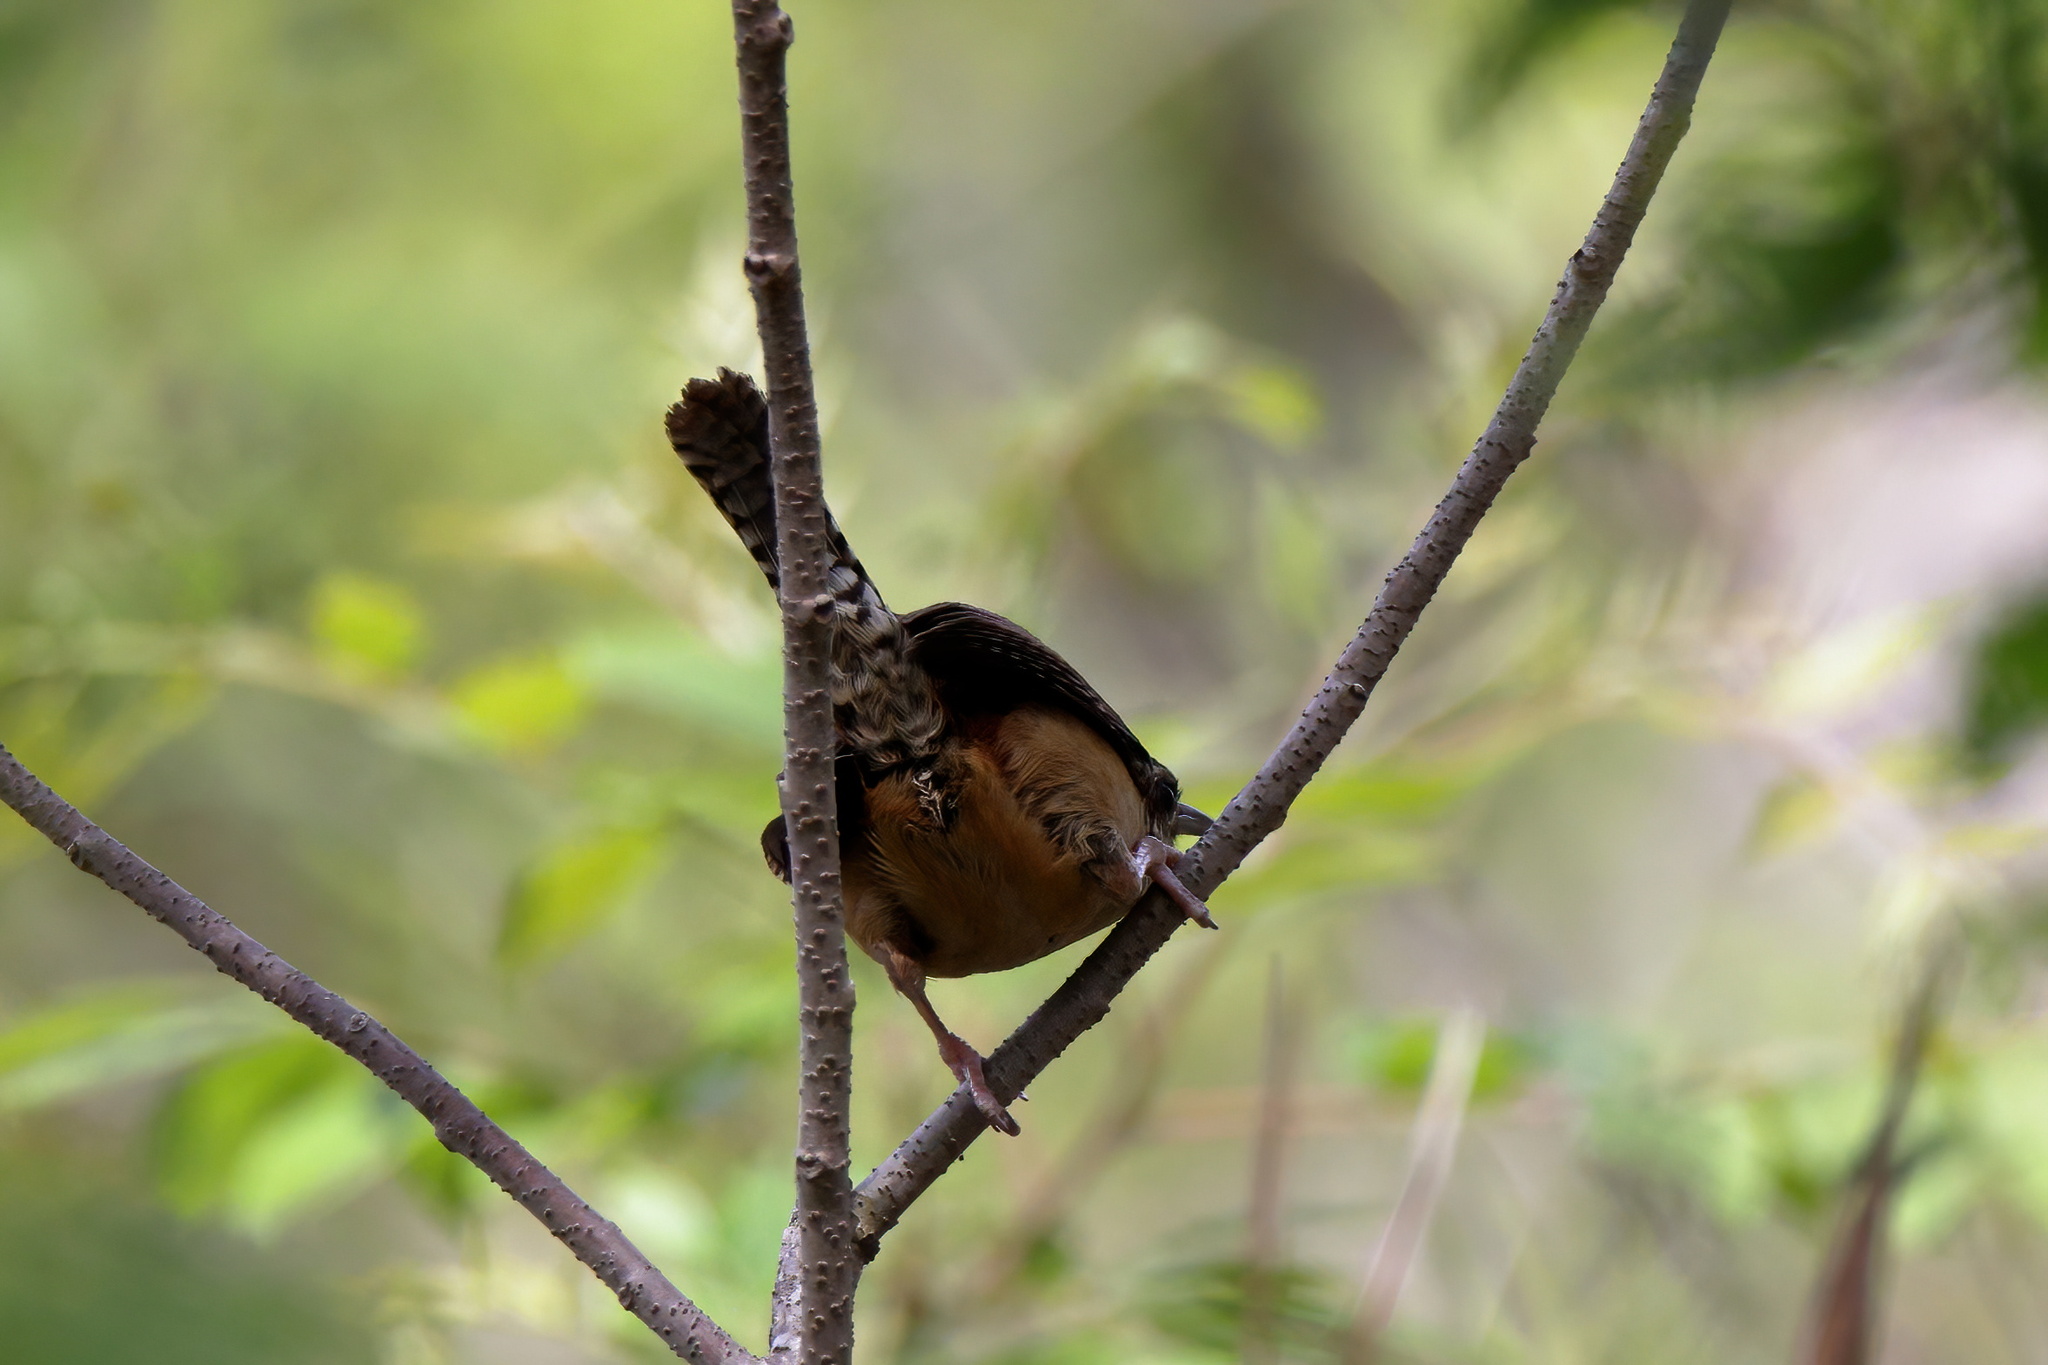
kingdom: Animalia
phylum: Chordata
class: Aves
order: Passeriformes
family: Troglodytidae
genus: Thryothorus
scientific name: Thryothorus ludovicianus
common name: Carolina wren
